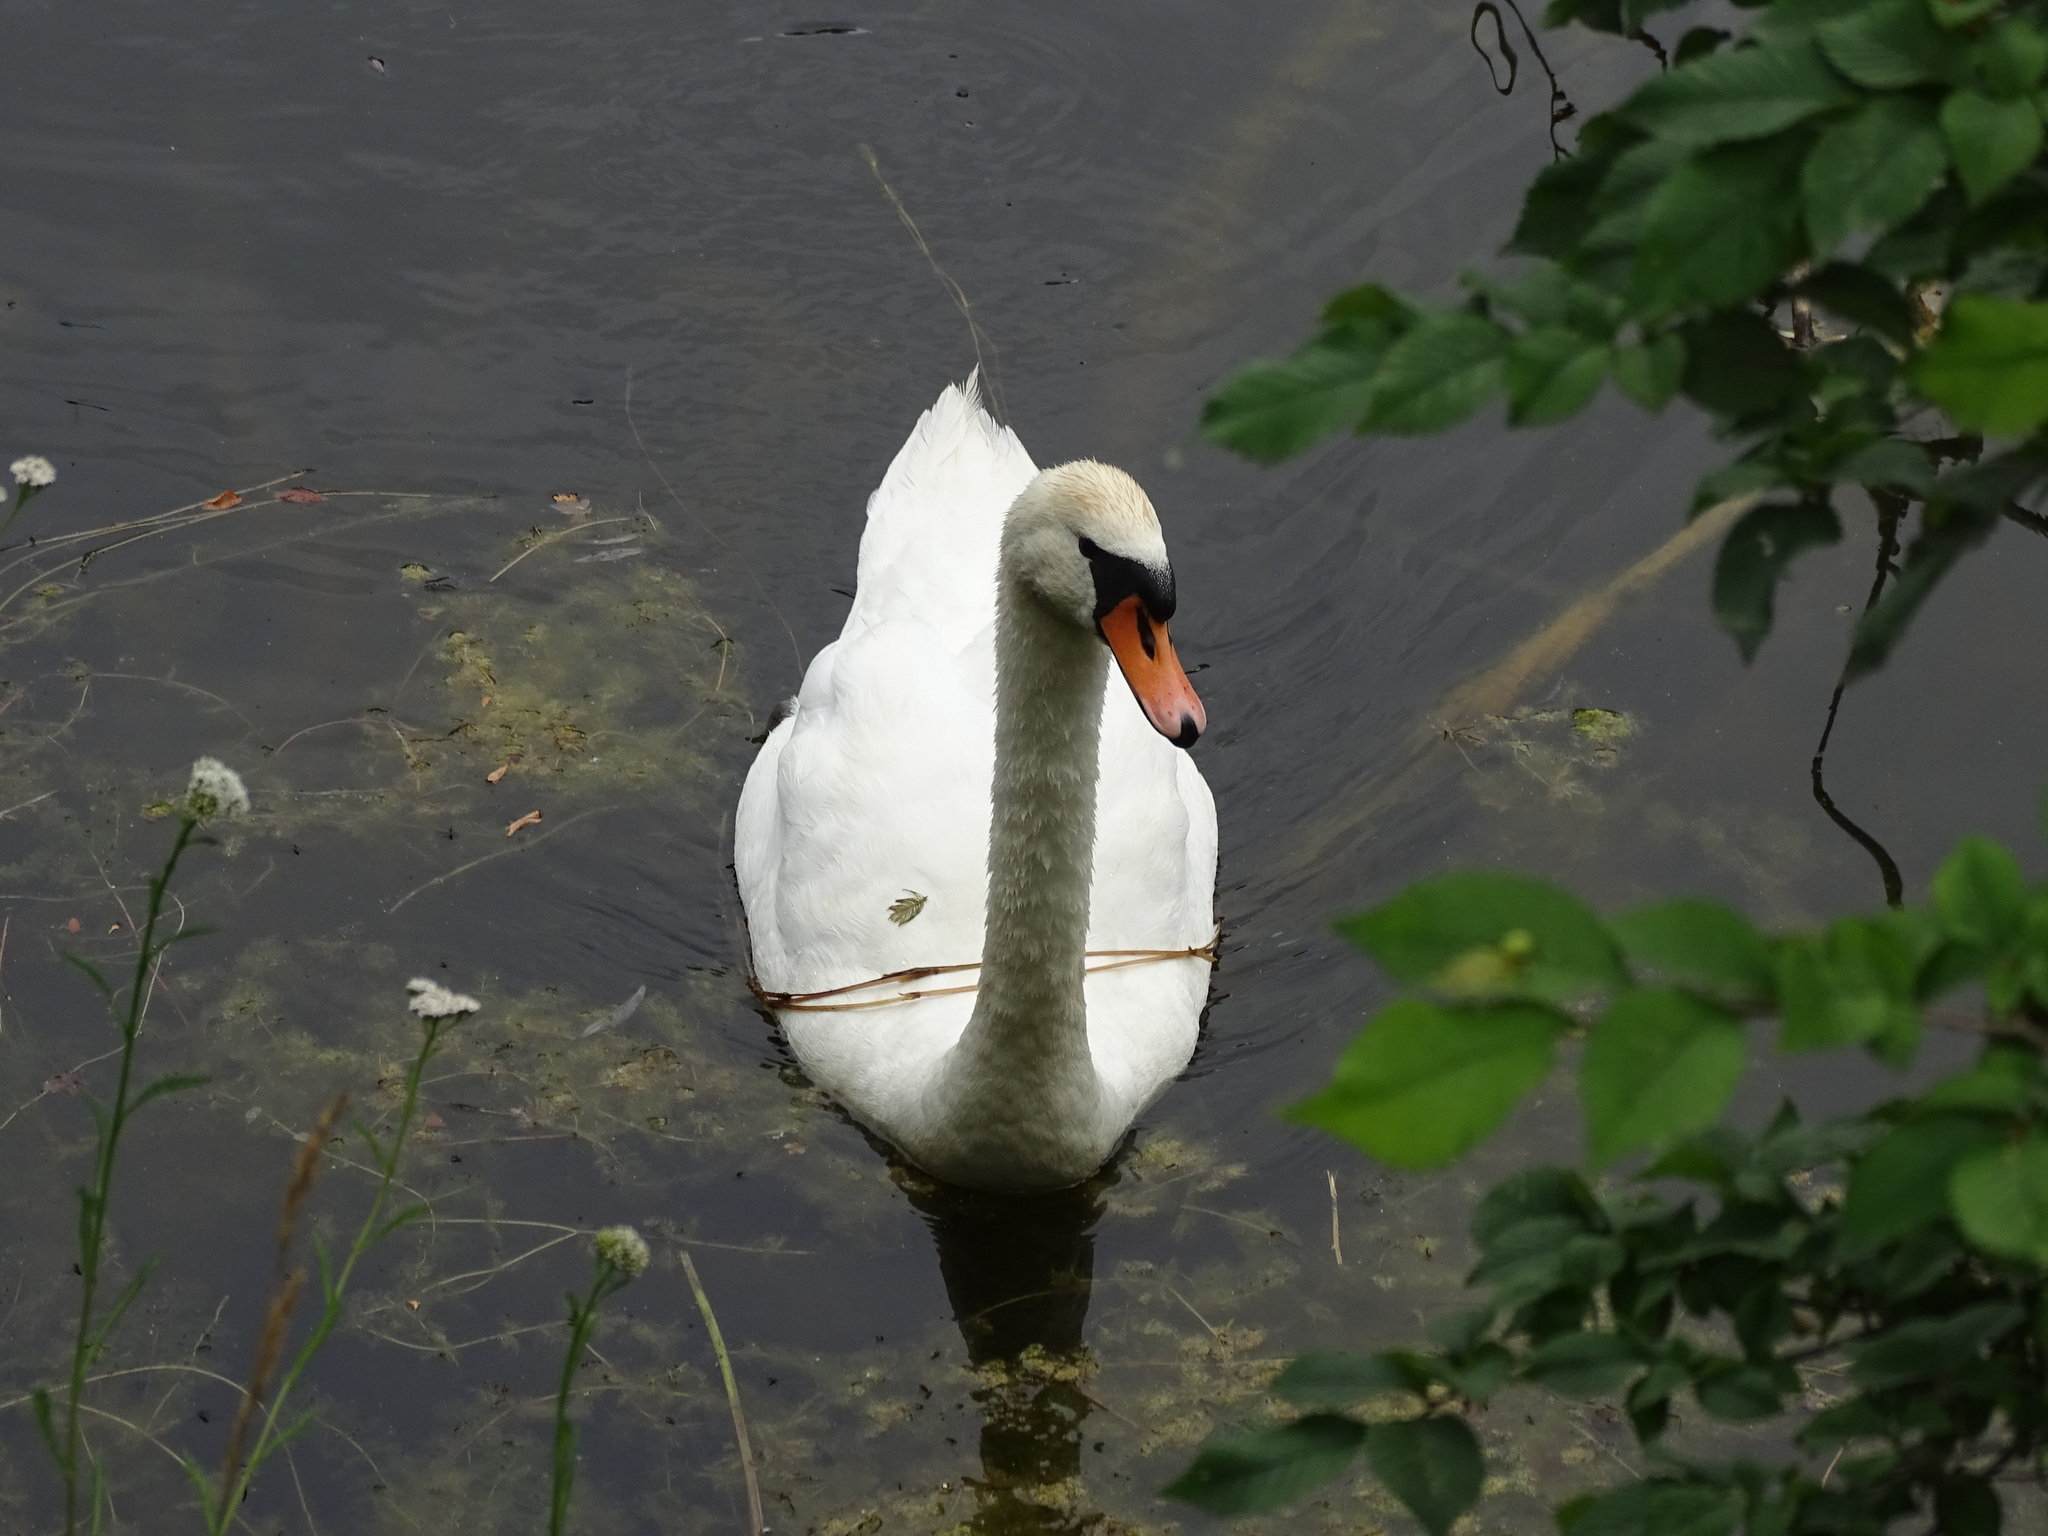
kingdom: Animalia
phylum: Chordata
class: Aves
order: Anseriformes
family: Anatidae
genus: Cygnus
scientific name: Cygnus olor
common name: Mute swan
